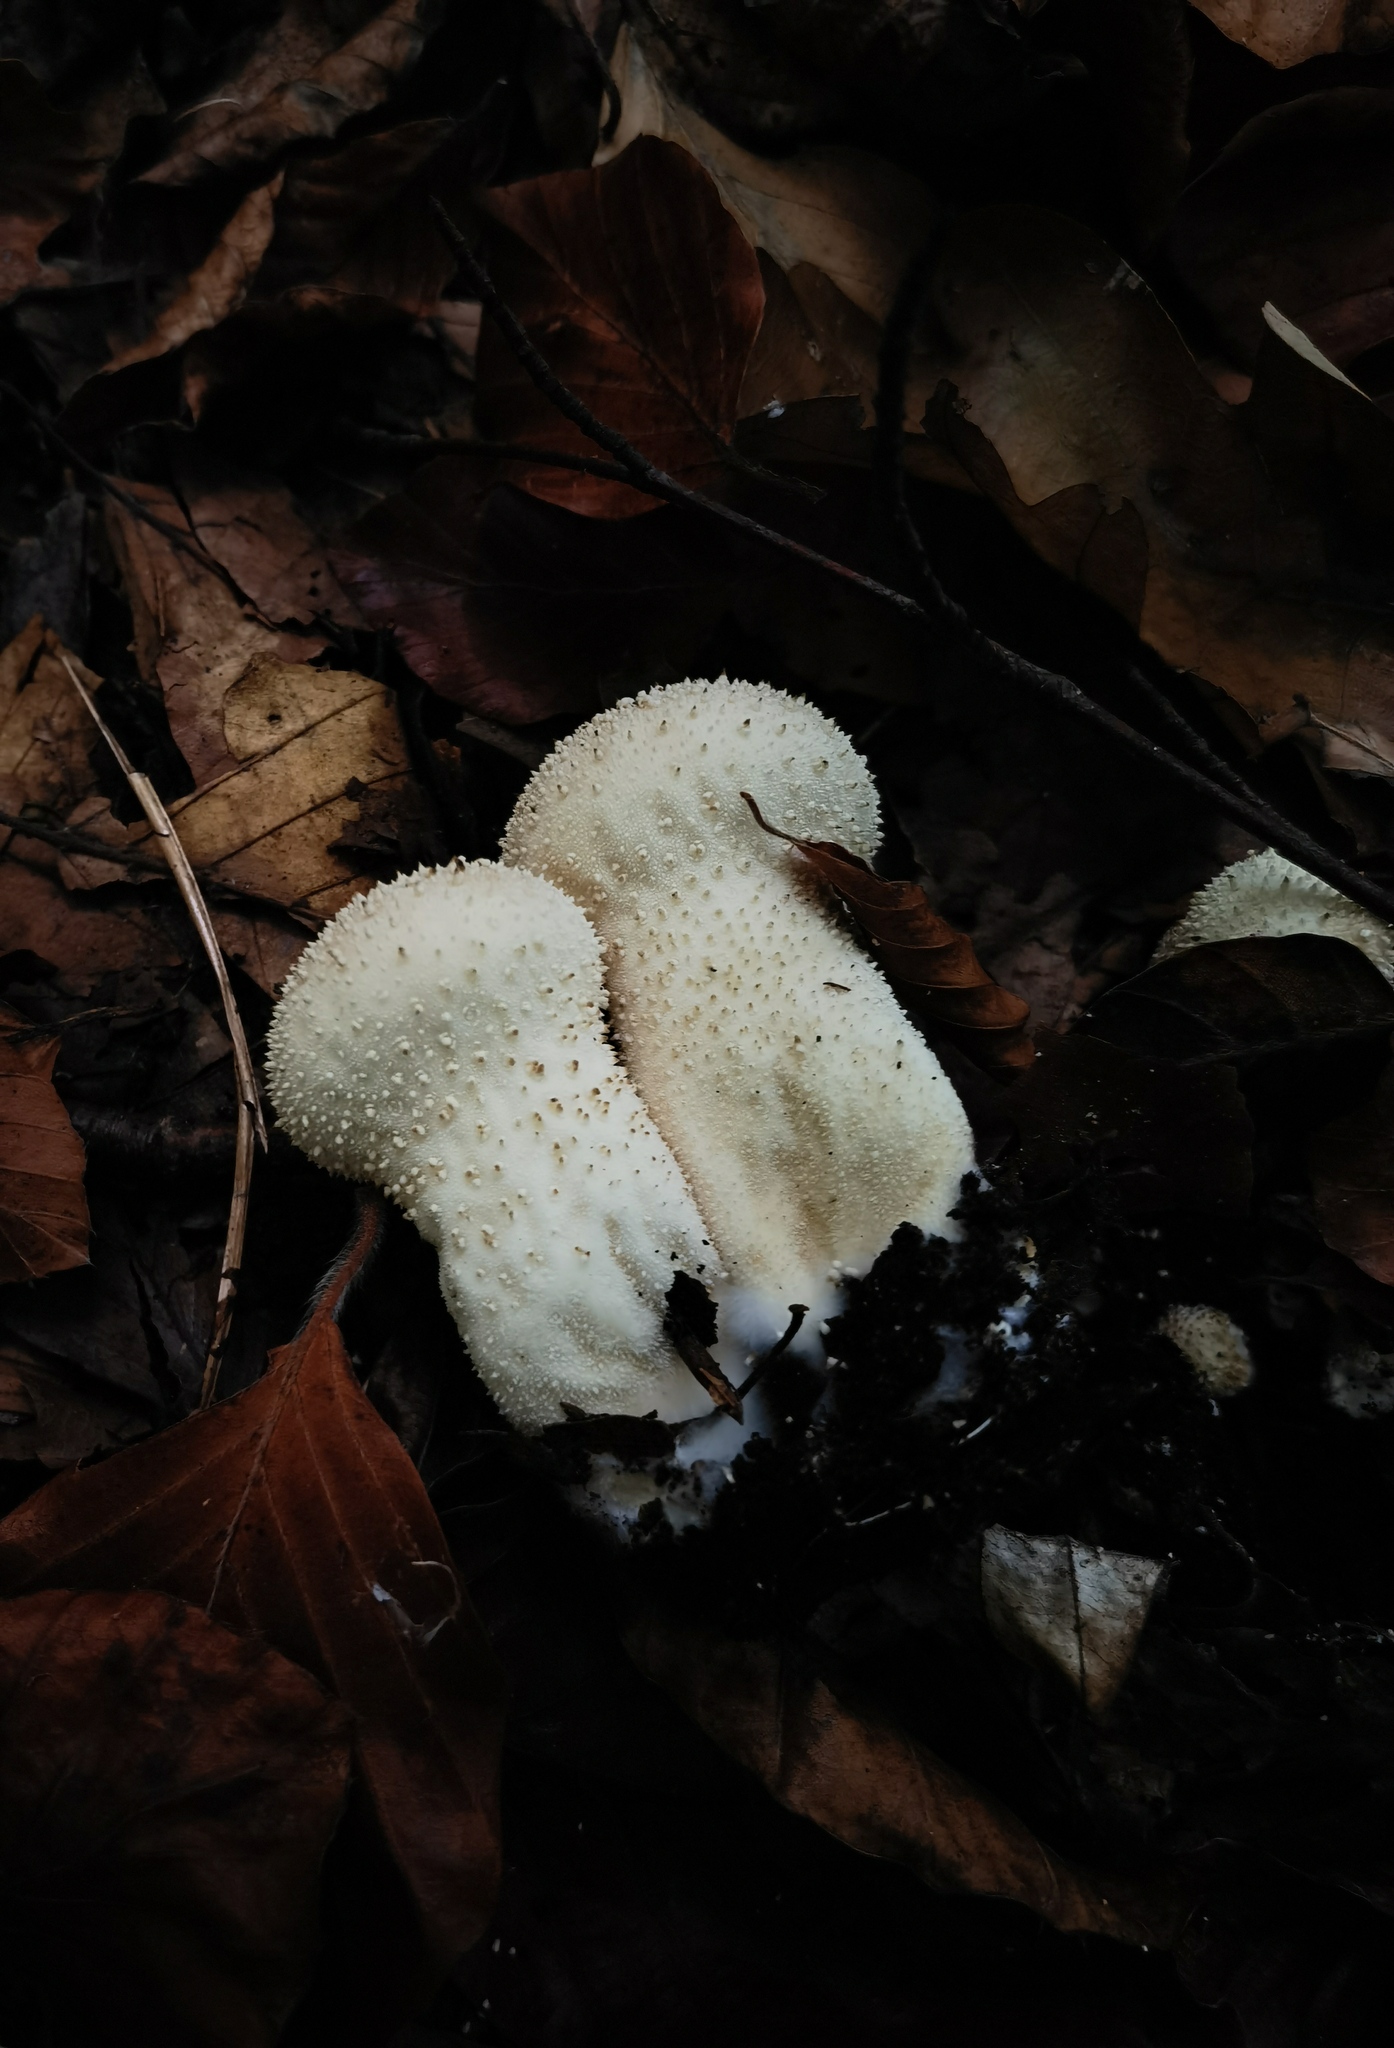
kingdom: Fungi
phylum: Basidiomycota
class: Agaricomycetes
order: Agaricales
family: Lycoperdaceae
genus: Lycoperdon
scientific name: Lycoperdon perlatum
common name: Common puffball
